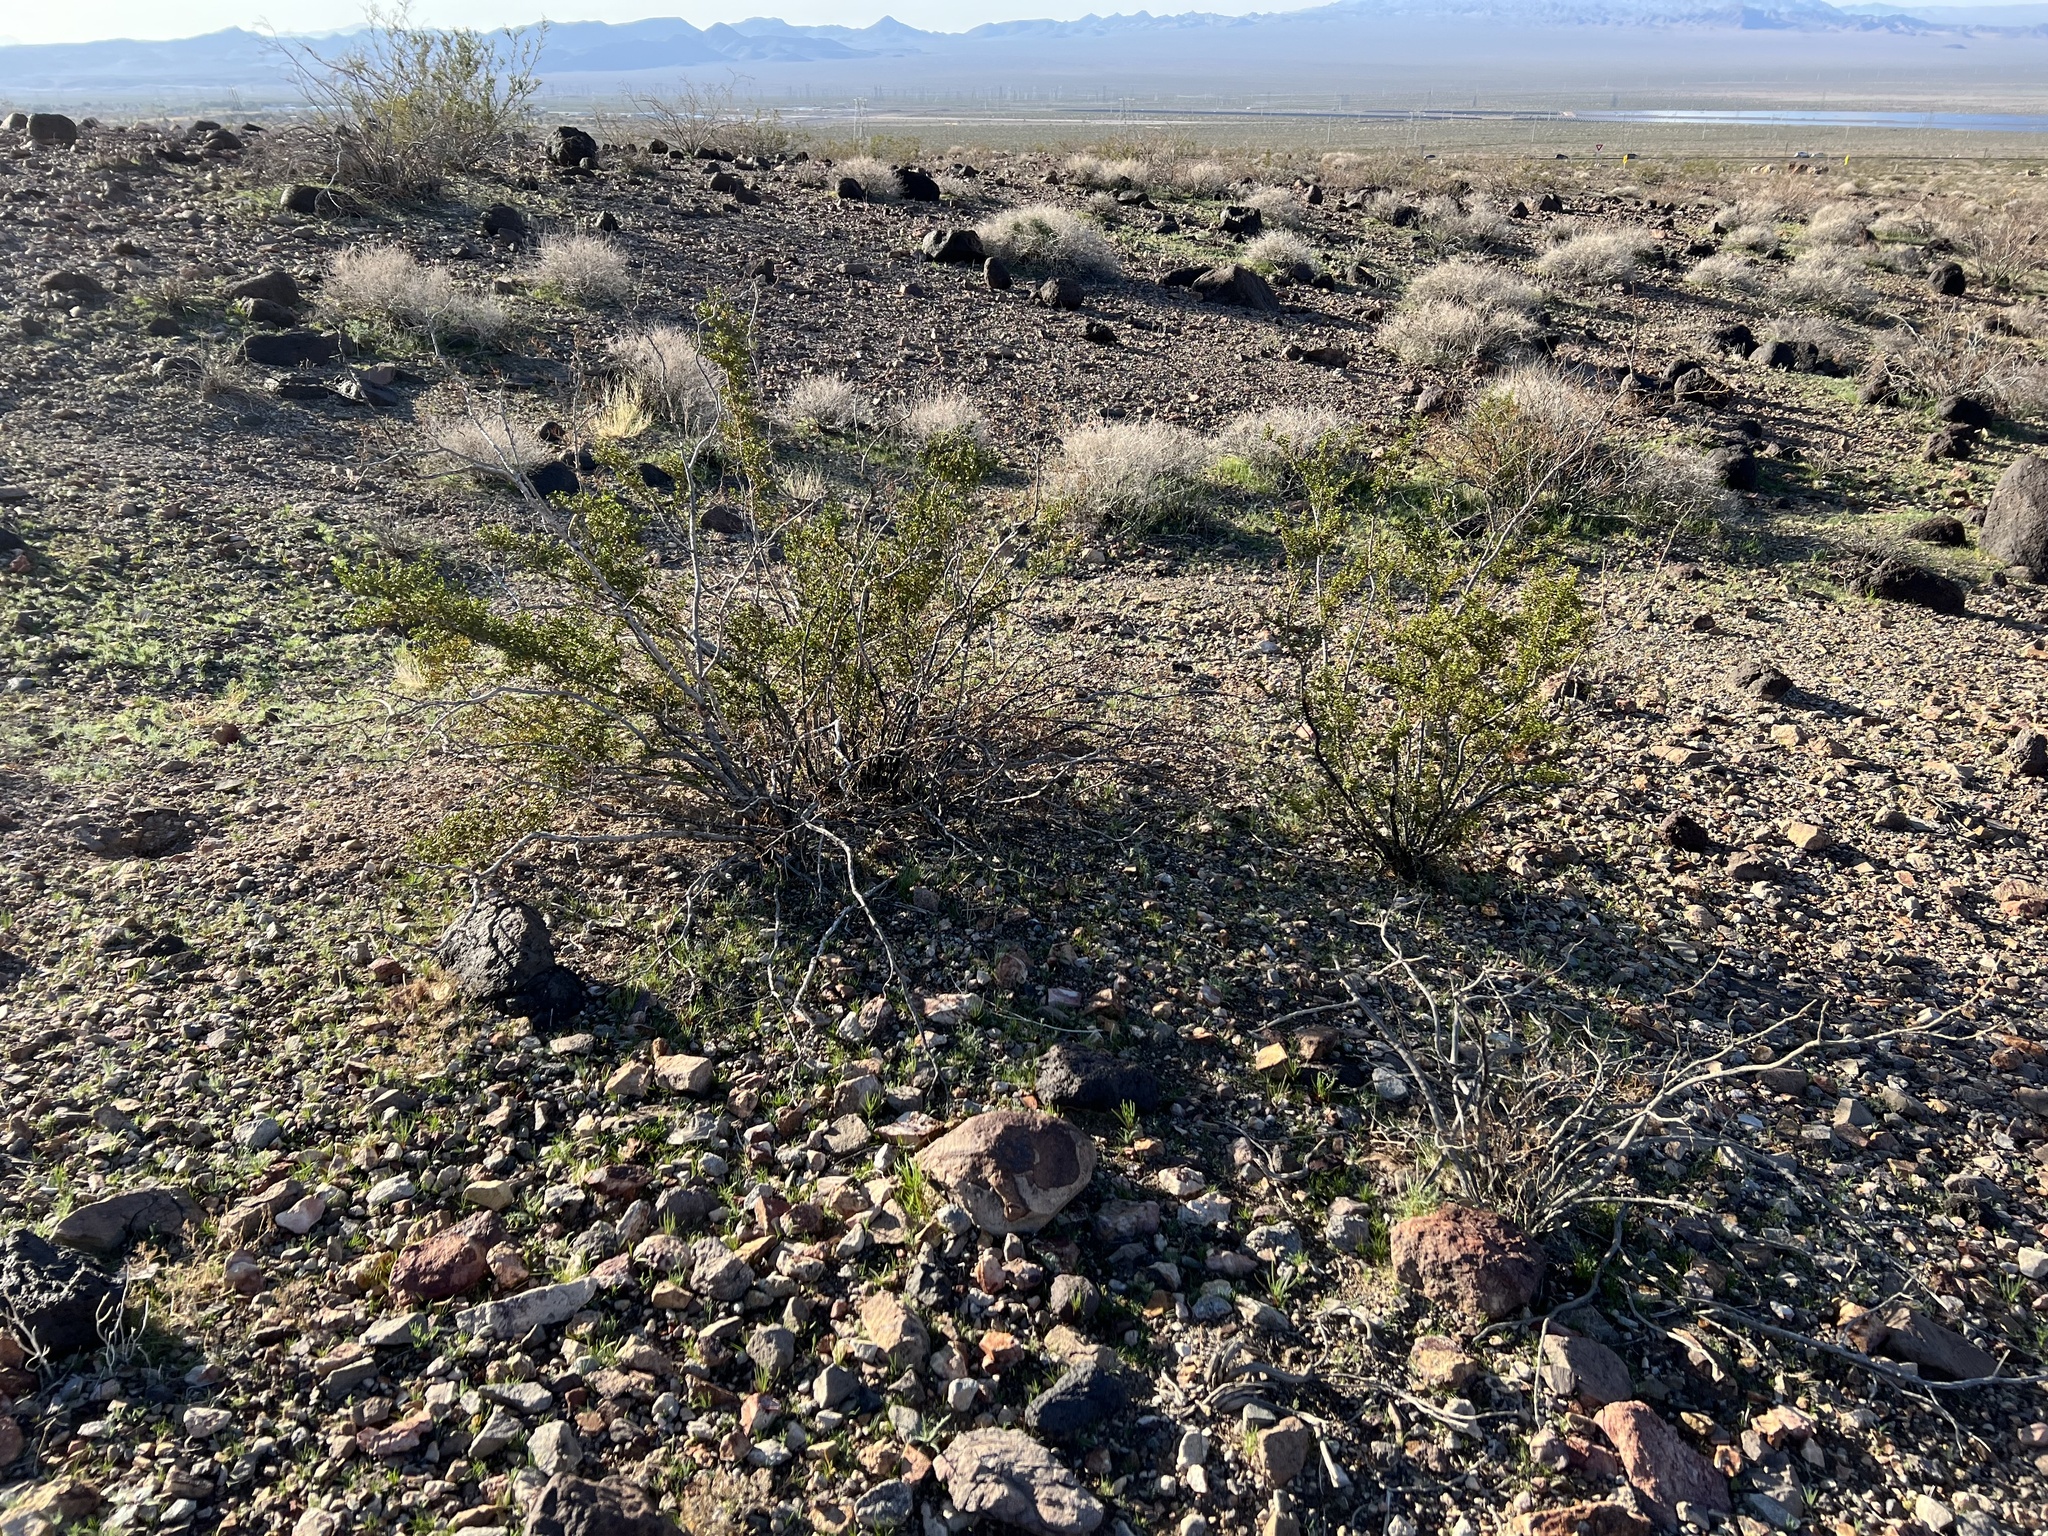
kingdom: Plantae
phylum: Tracheophyta
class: Magnoliopsida
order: Zygophyllales
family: Zygophyllaceae
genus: Larrea
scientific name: Larrea tridentata
